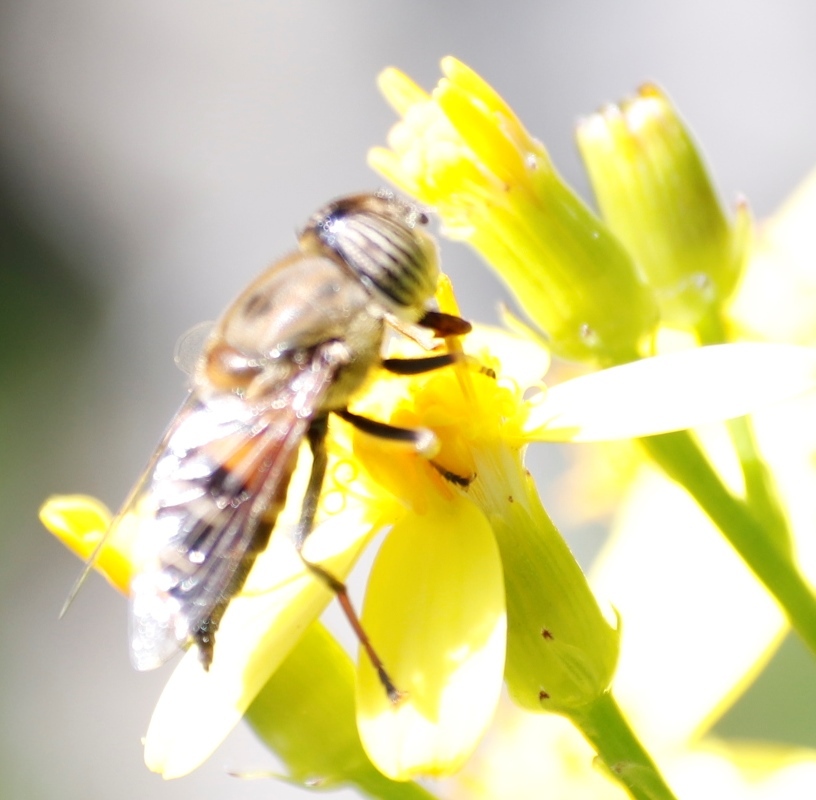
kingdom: Animalia
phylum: Arthropoda
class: Insecta
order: Diptera
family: Syrphidae
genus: Eristalinus
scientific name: Eristalinus taeniops
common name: Syrphid fly
